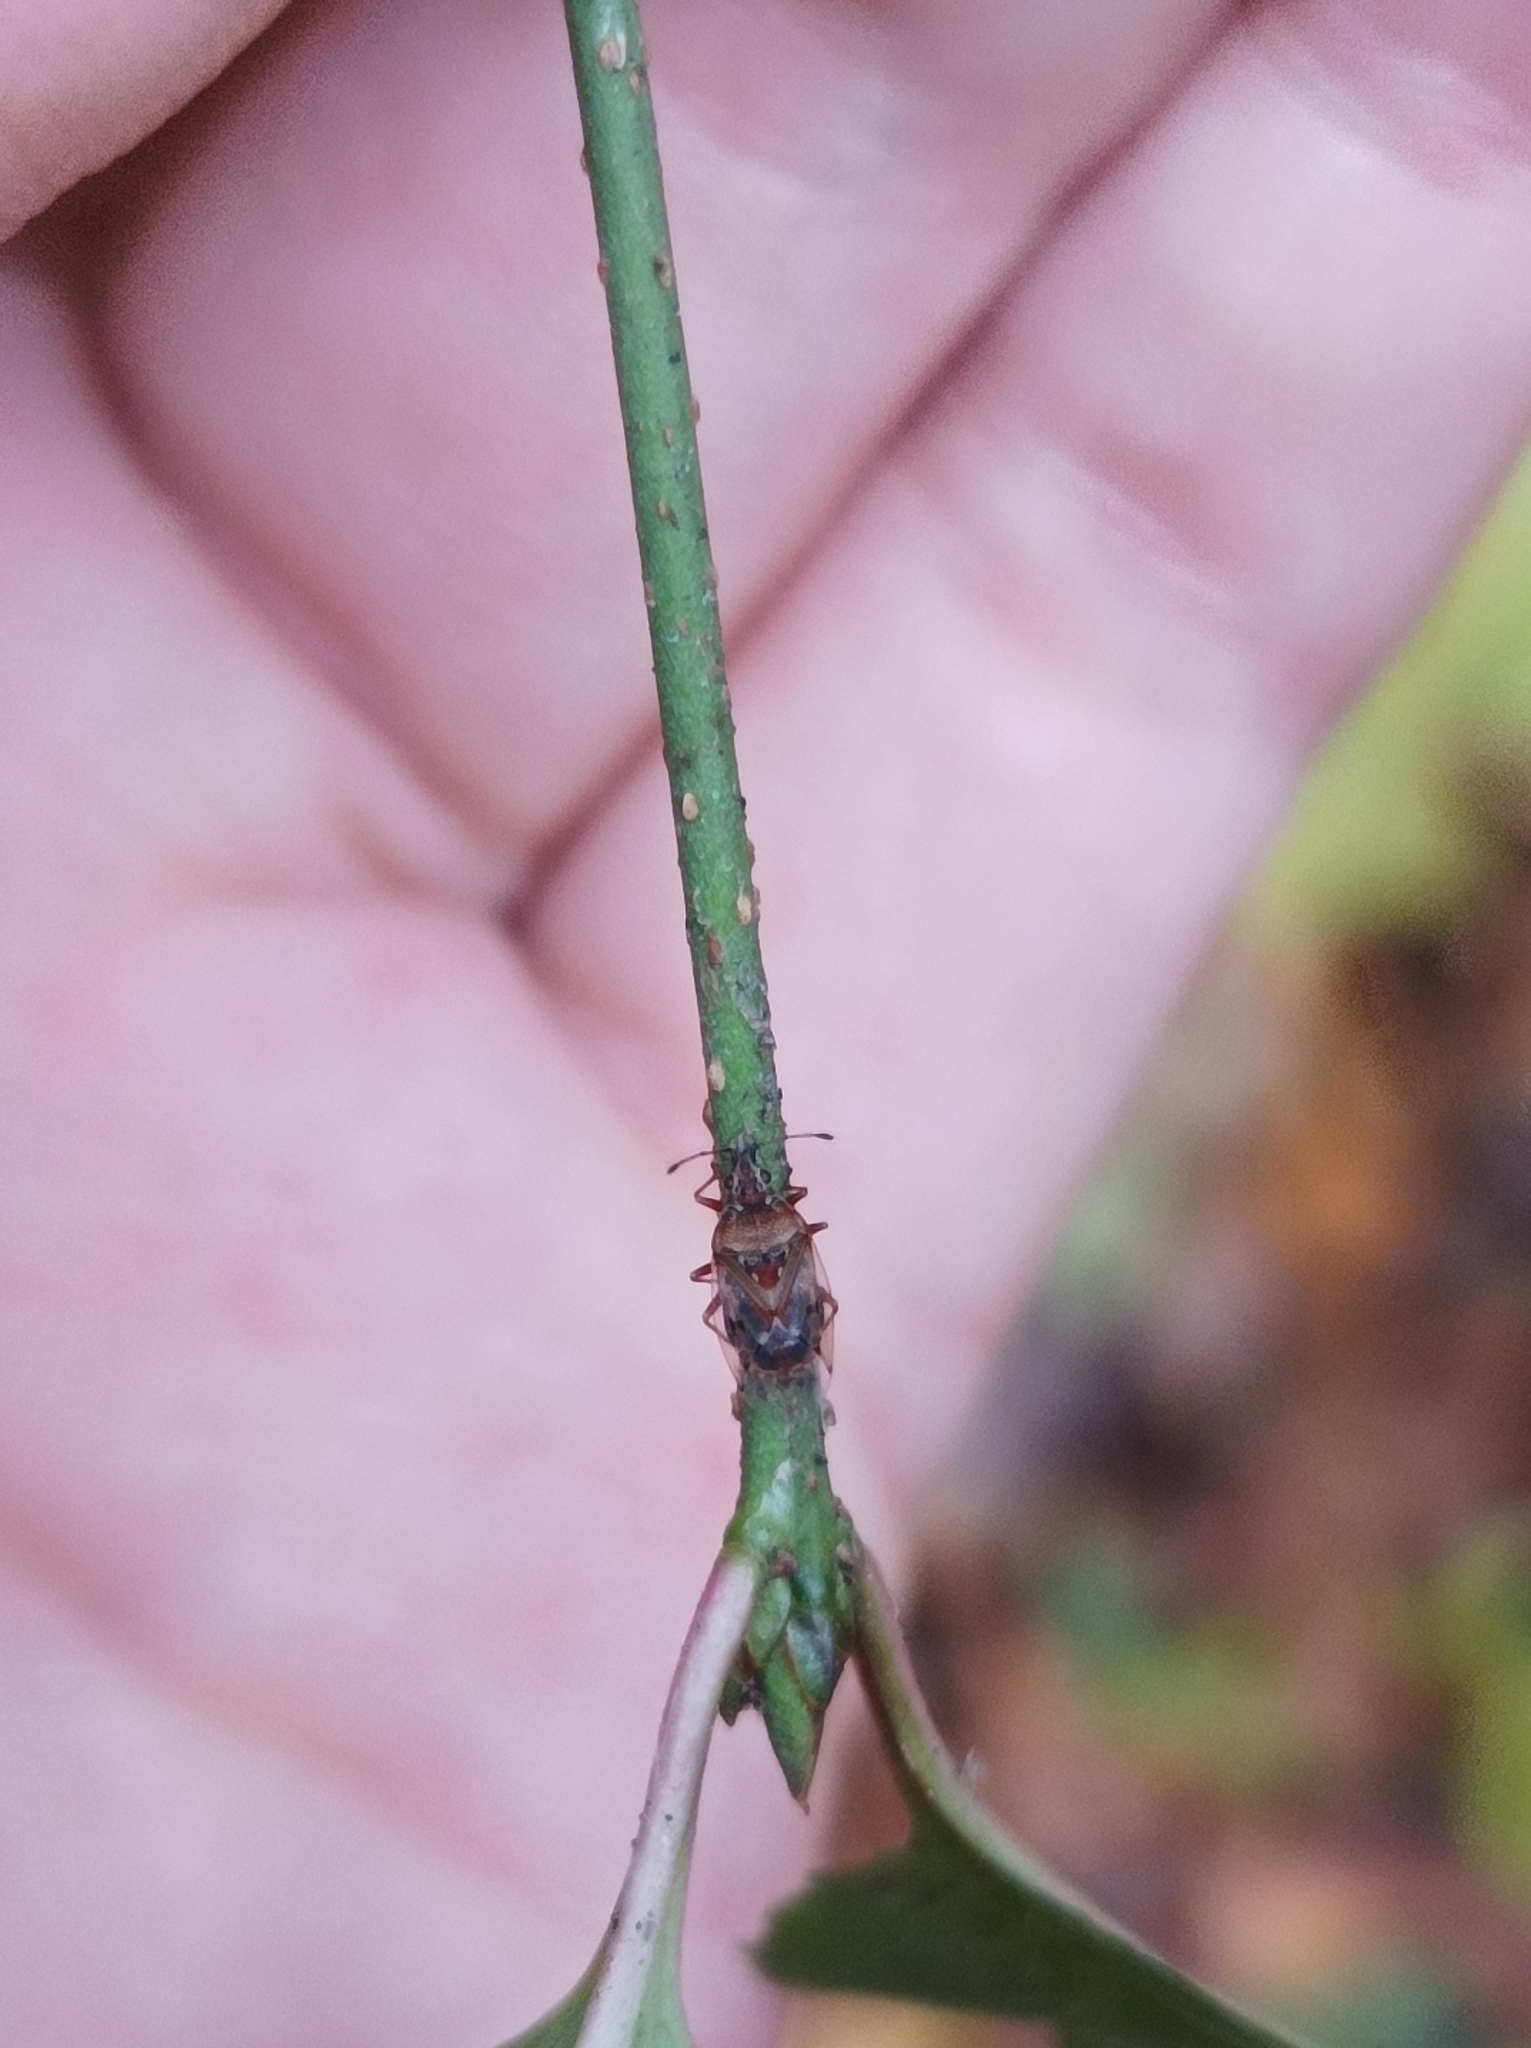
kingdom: Animalia
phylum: Arthropoda
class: Insecta
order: Hemiptera
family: Lygaeidae
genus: Kleidocerys
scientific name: Kleidocerys resedae
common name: Birch catkin bug
